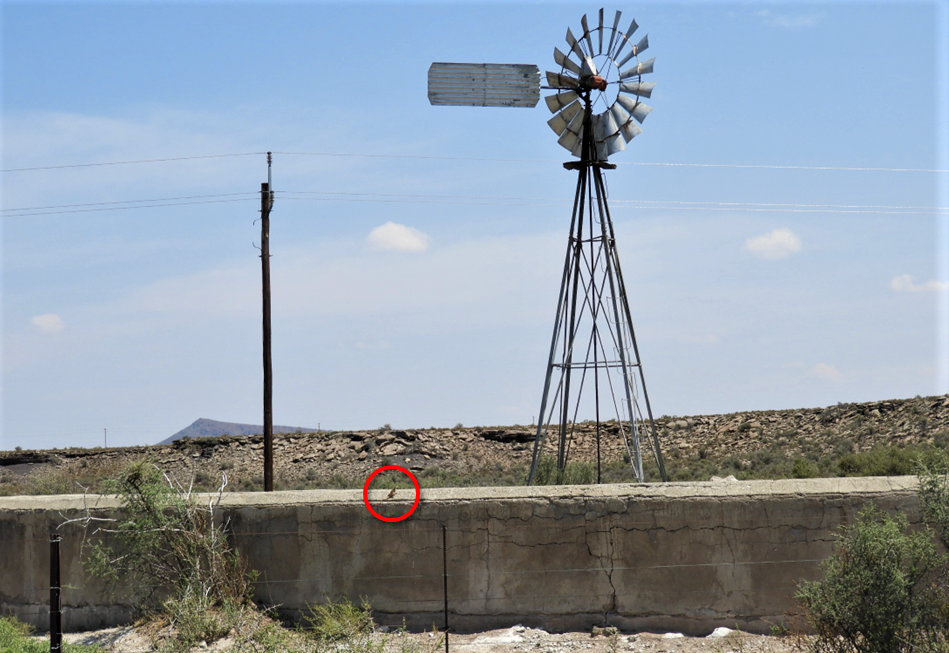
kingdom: Animalia
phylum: Chordata
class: Squamata
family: Agamidae
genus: Agama
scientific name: Agama atra
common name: Southern african rock agama
